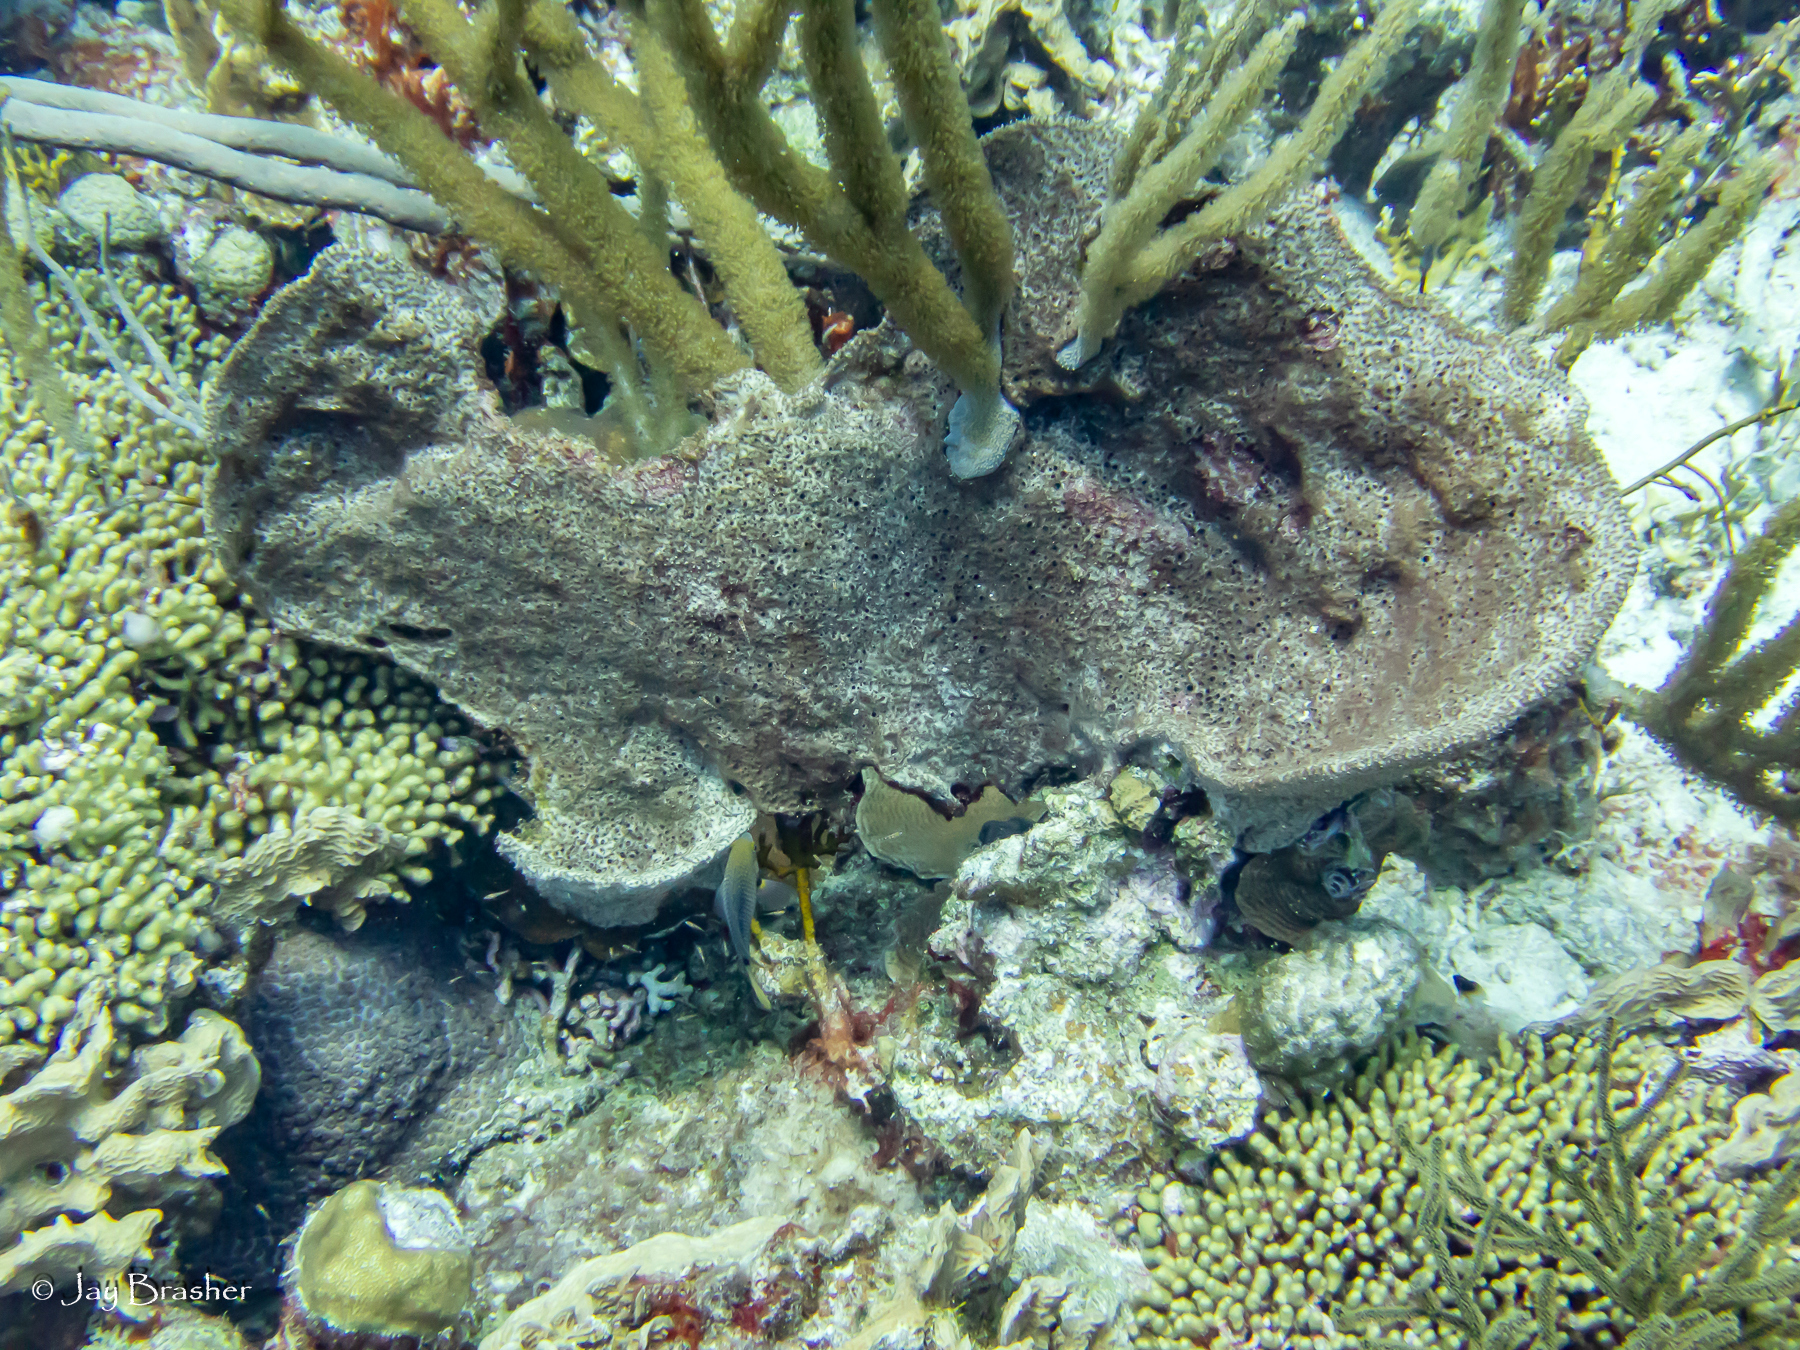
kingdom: Animalia
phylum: Porifera
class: Demospongiae
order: Dictyoceratida
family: Irciniidae
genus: Ircinia
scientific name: Ircinia campana
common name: Vase sponge
